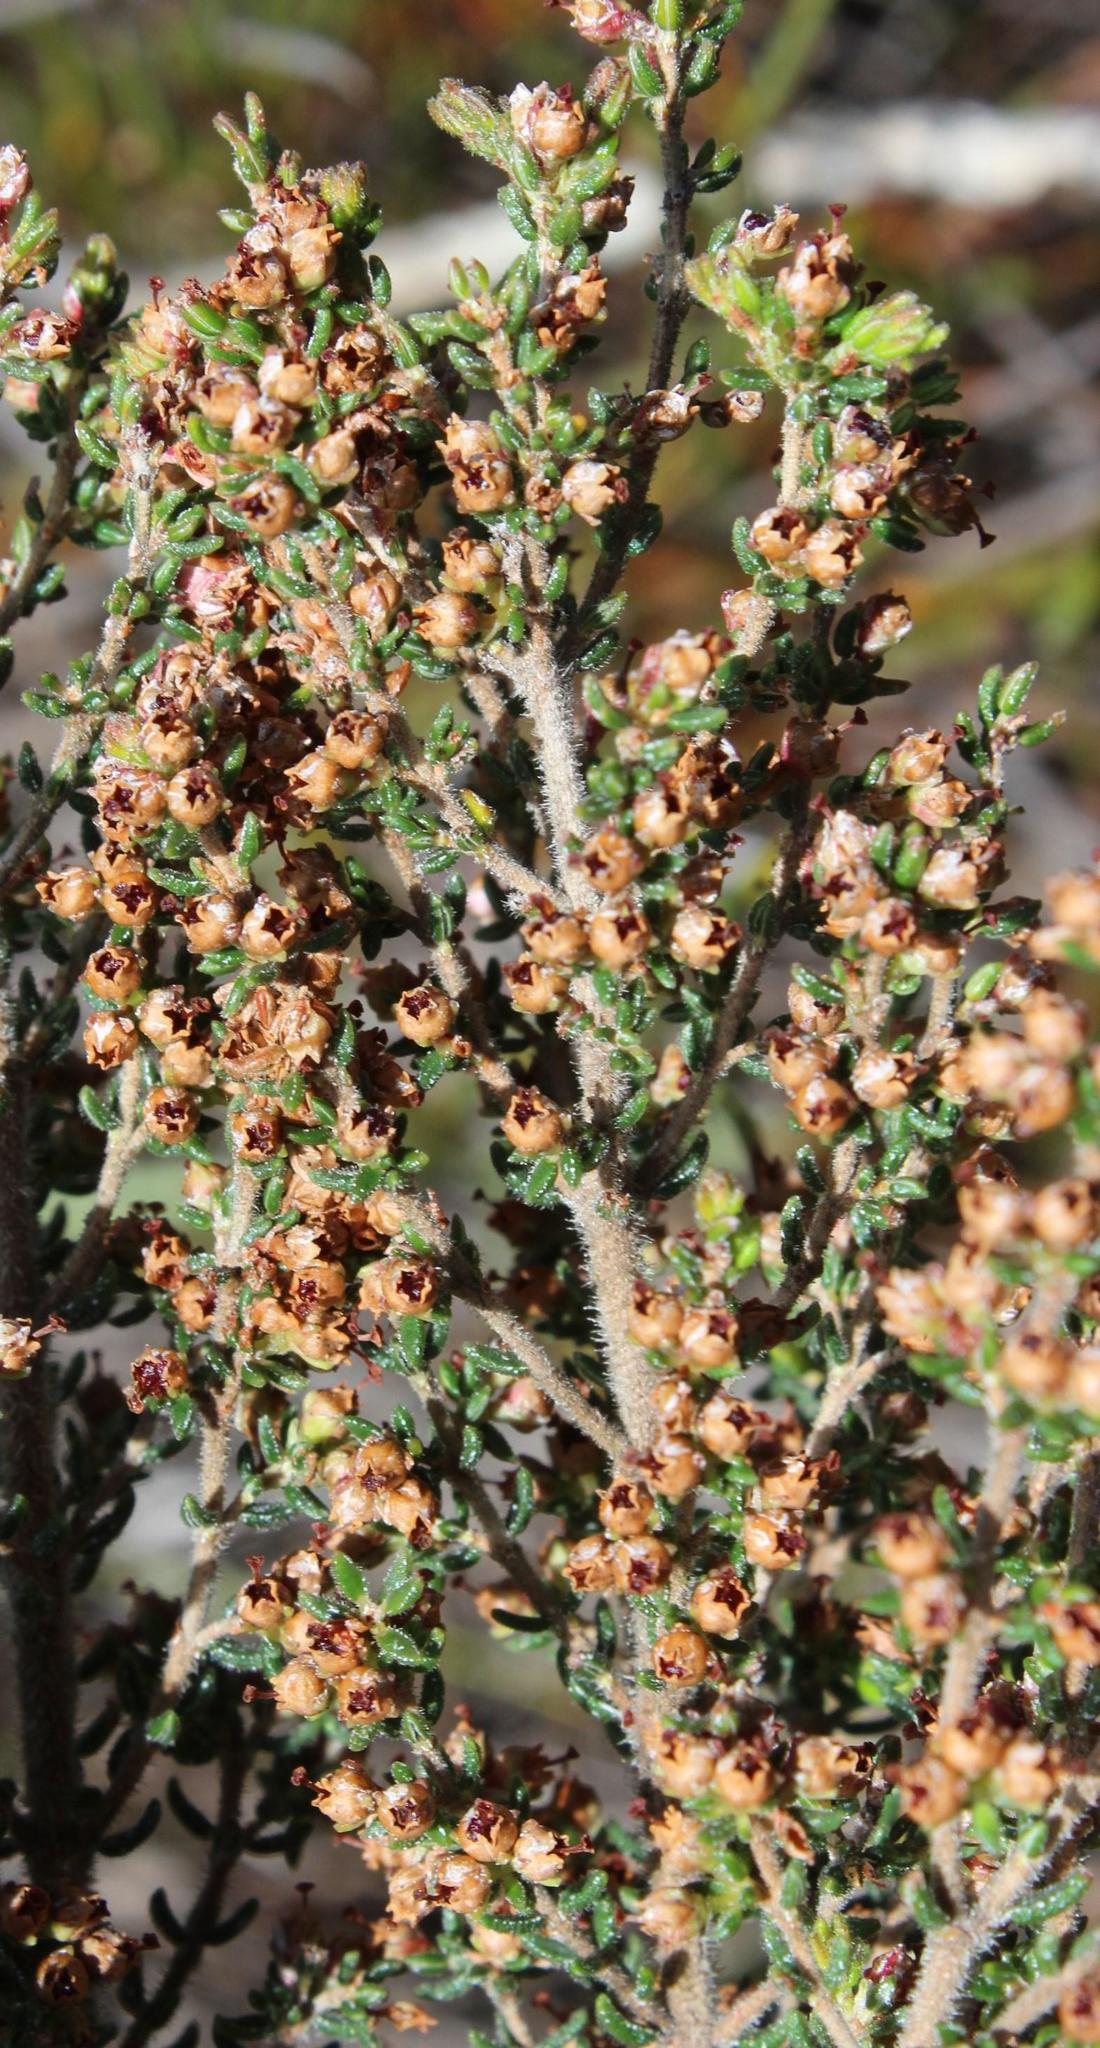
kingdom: Plantae
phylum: Tracheophyta
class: Magnoliopsida
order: Ericales
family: Ericaceae
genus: Erica
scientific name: Erica hispidula
